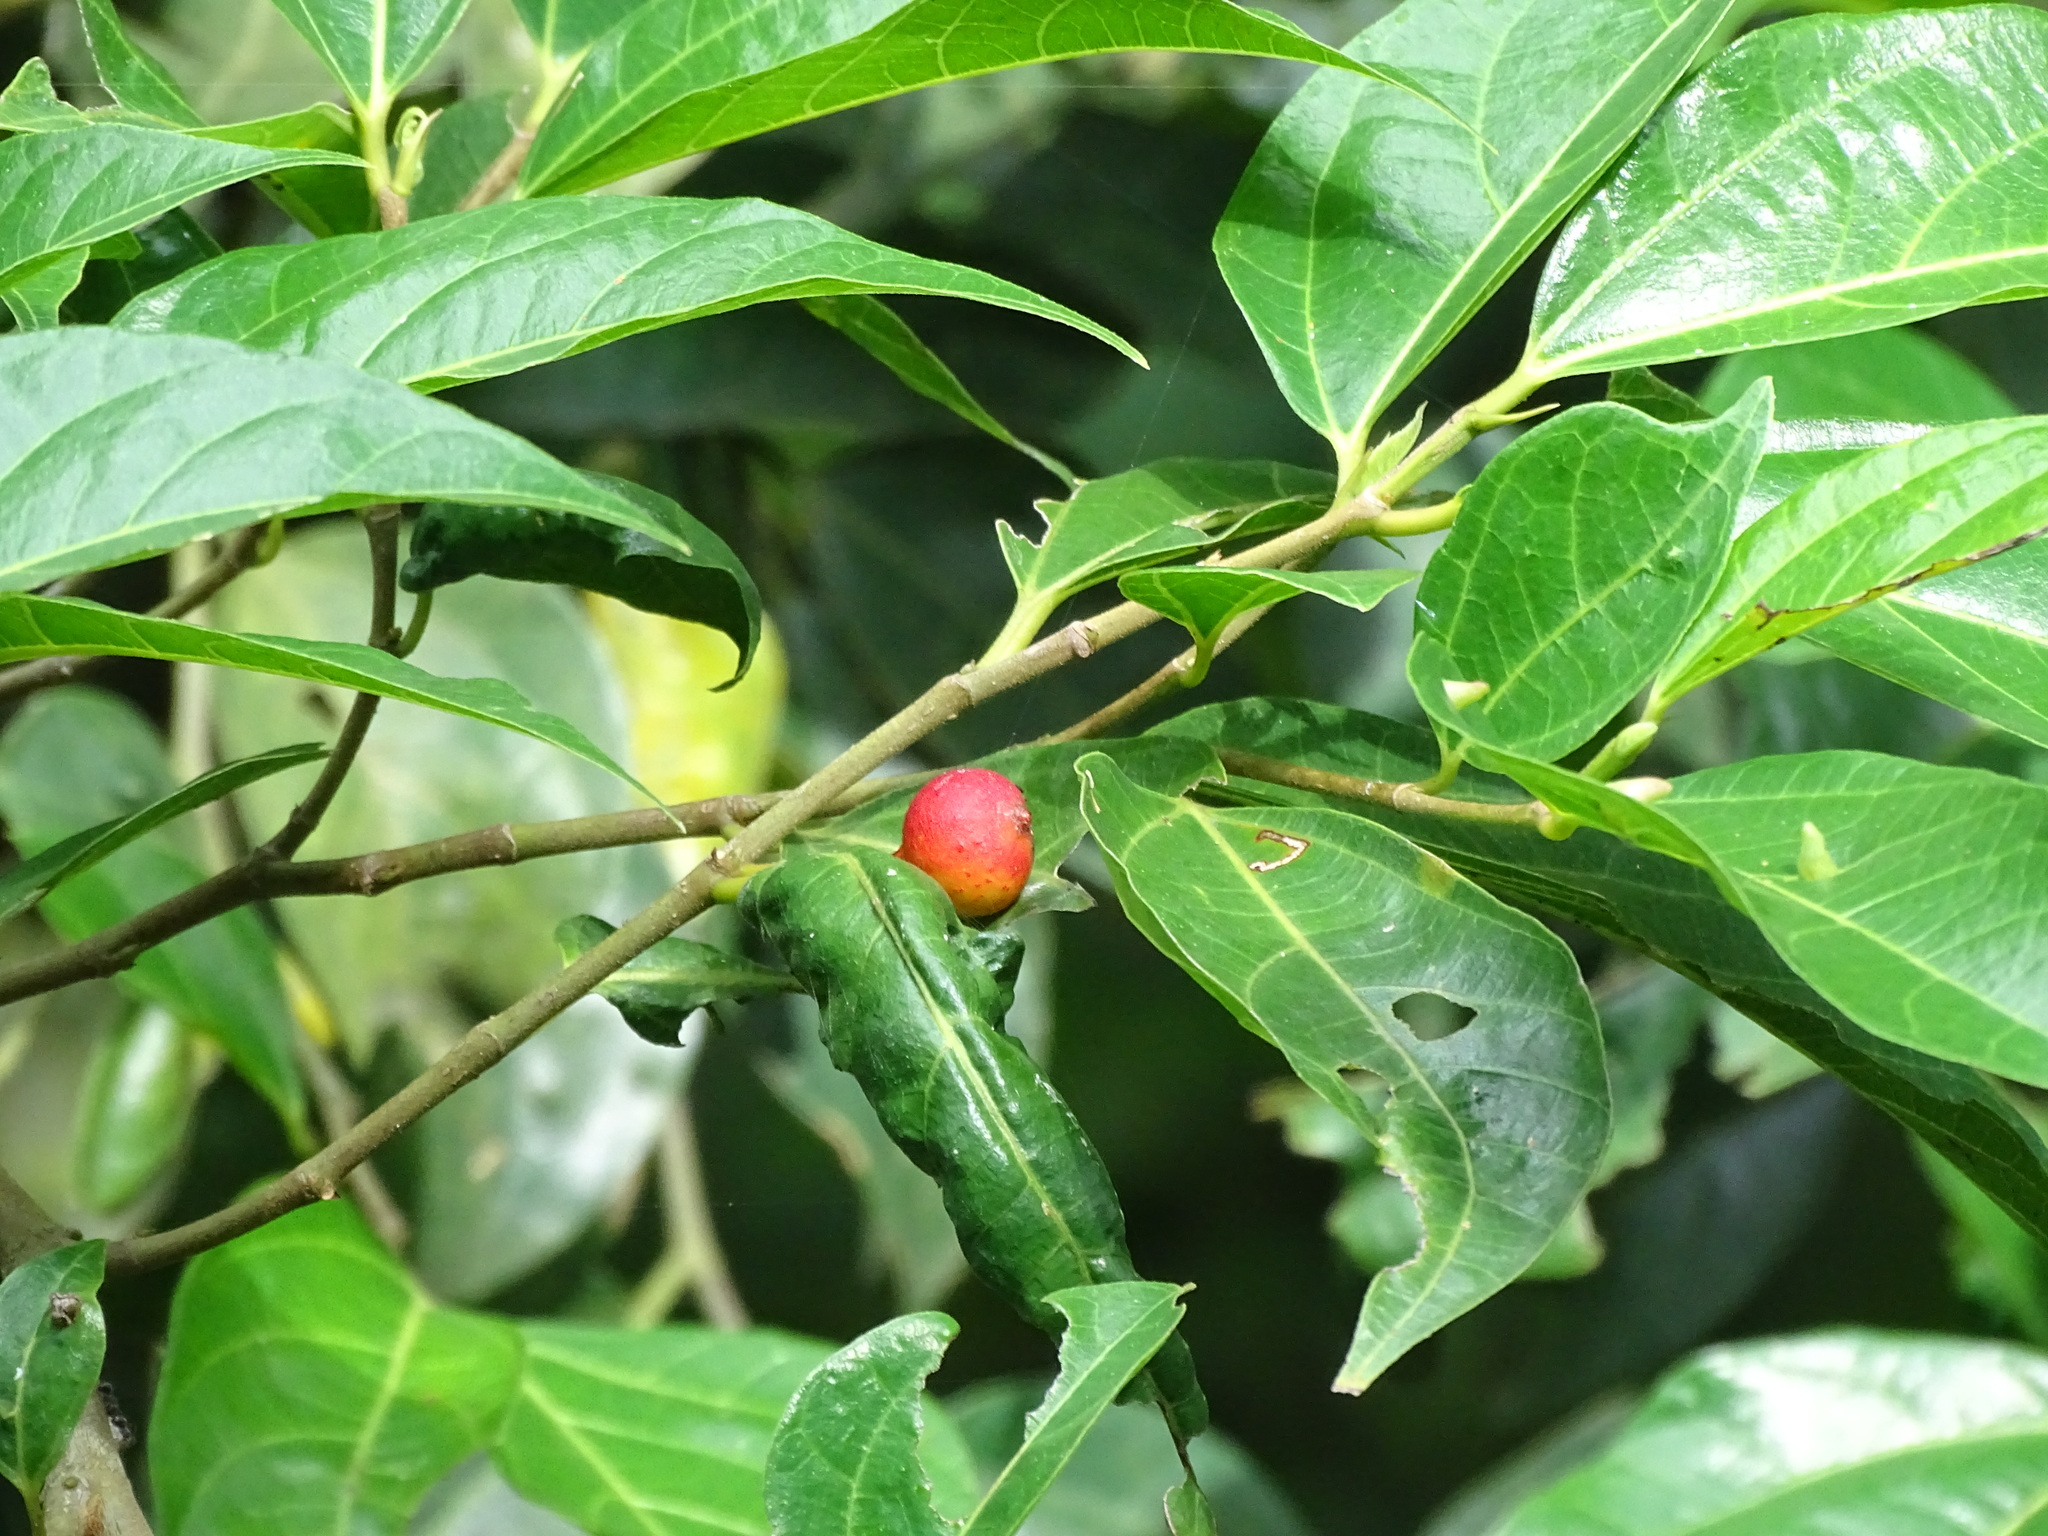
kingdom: Plantae
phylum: Tracheophyta
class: Magnoliopsida
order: Rosales
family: Moraceae
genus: Ficus
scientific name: Ficus ampelos
